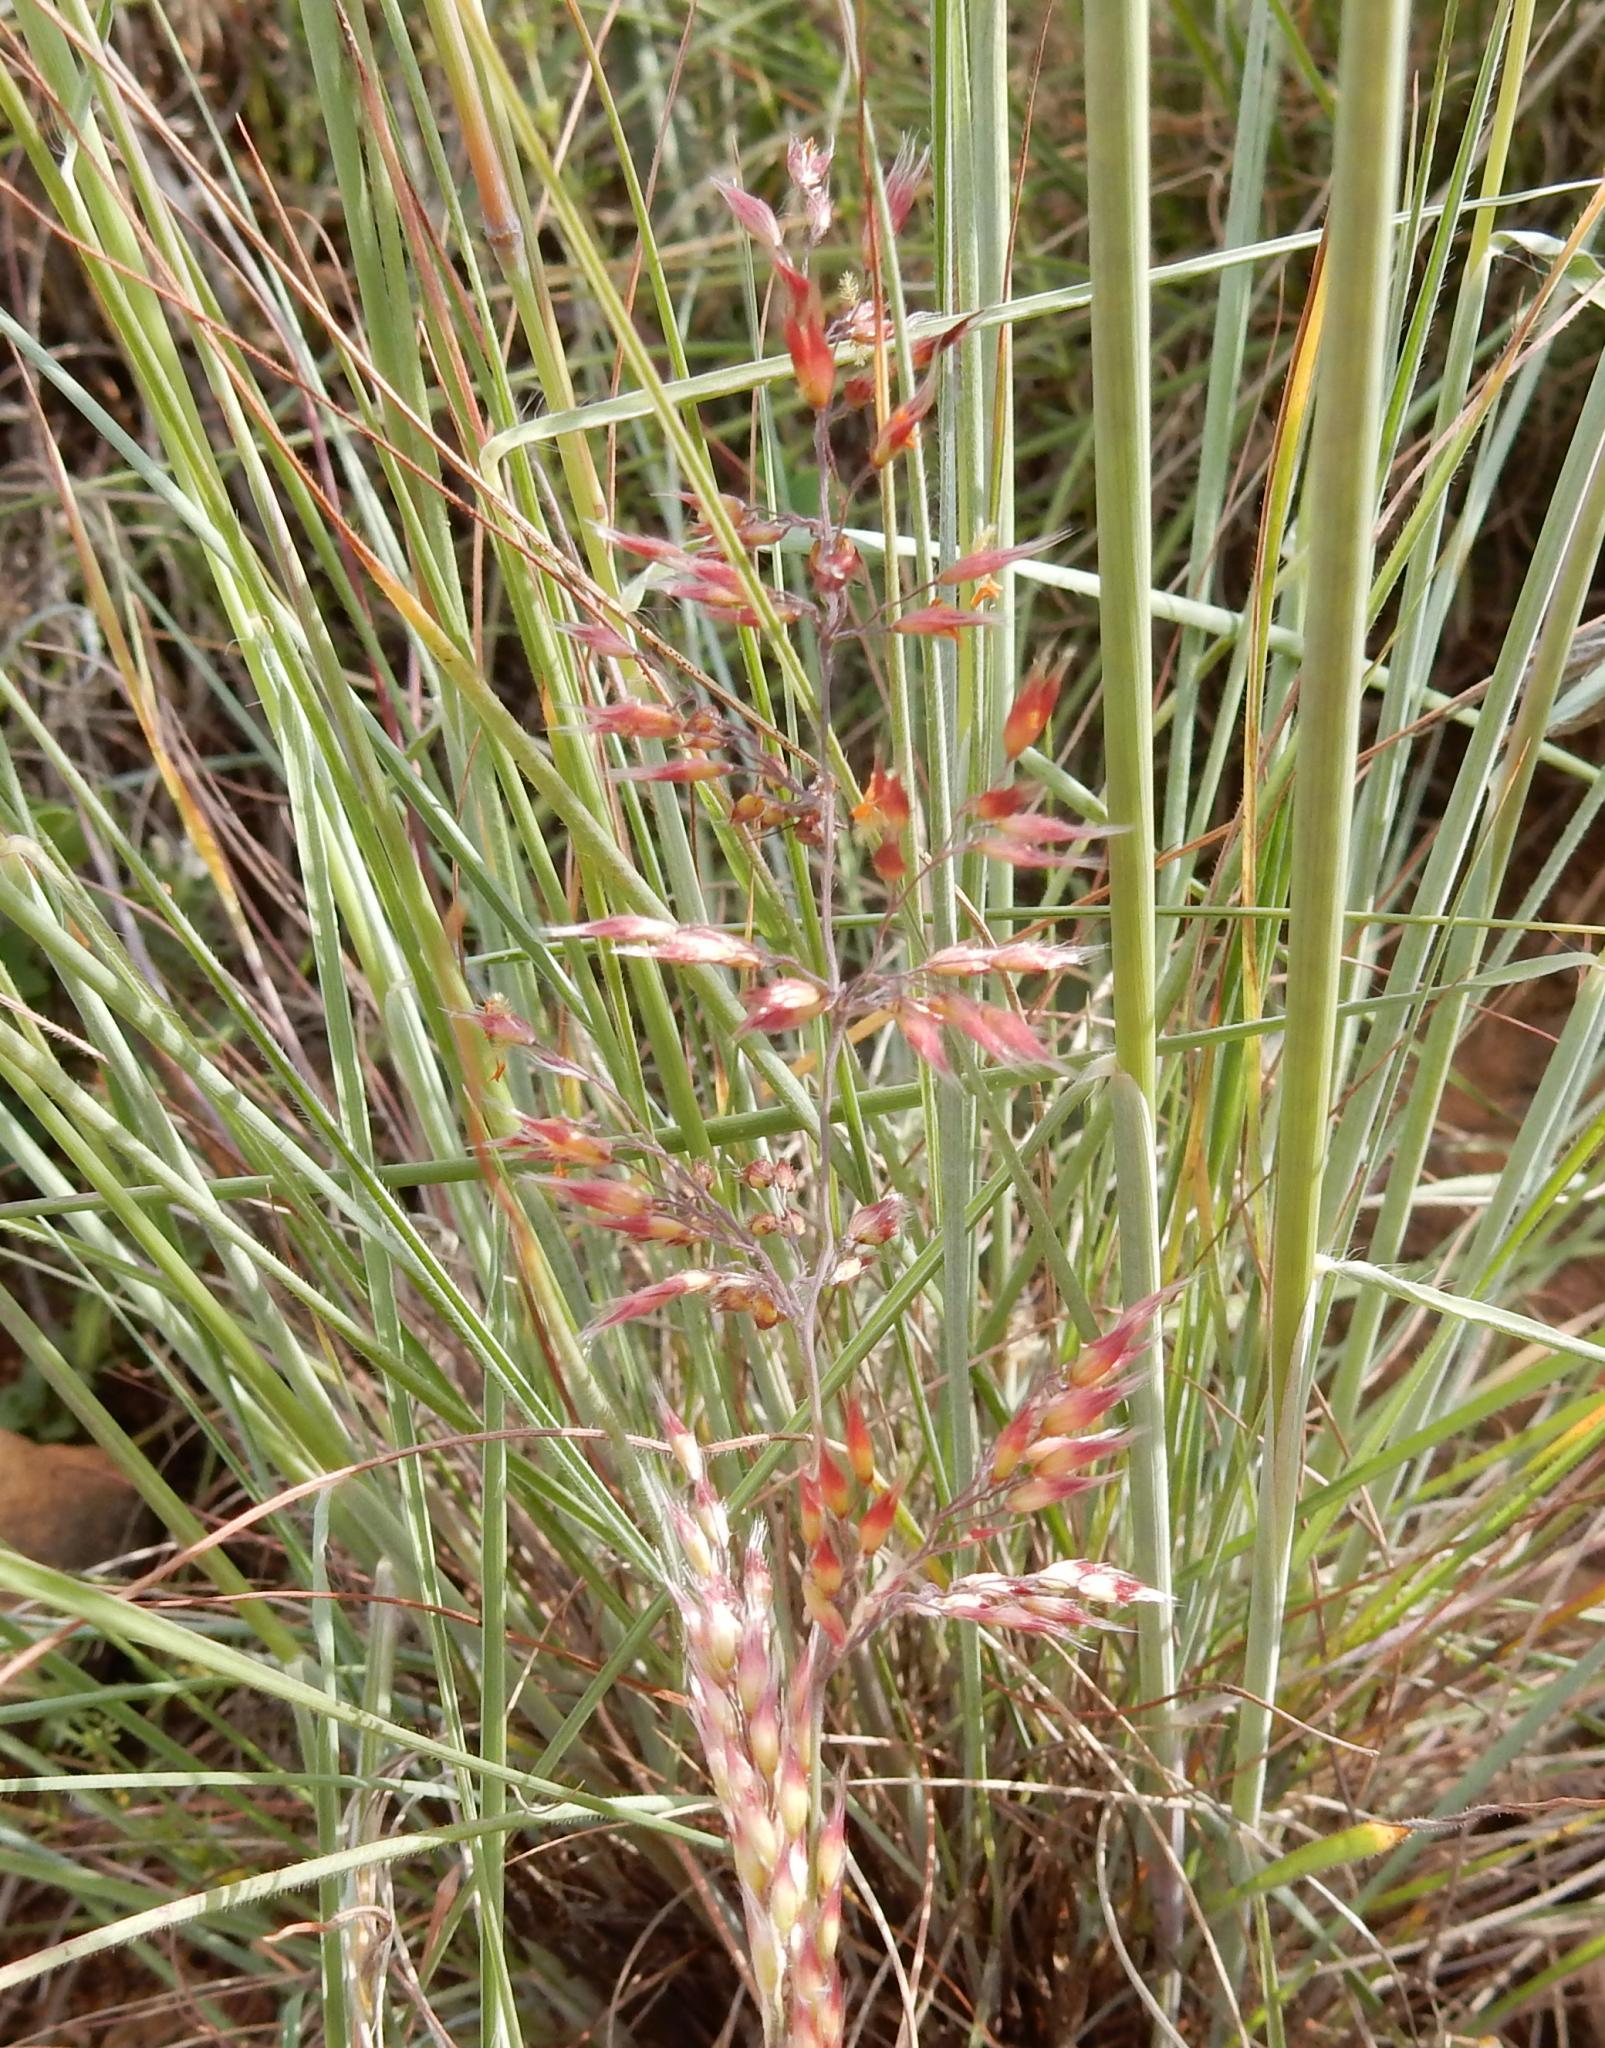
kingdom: Plantae
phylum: Tracheophyta
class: Liliopsida
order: Poales
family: Poaceae
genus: Melinis
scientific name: Melinis nerviglumis
